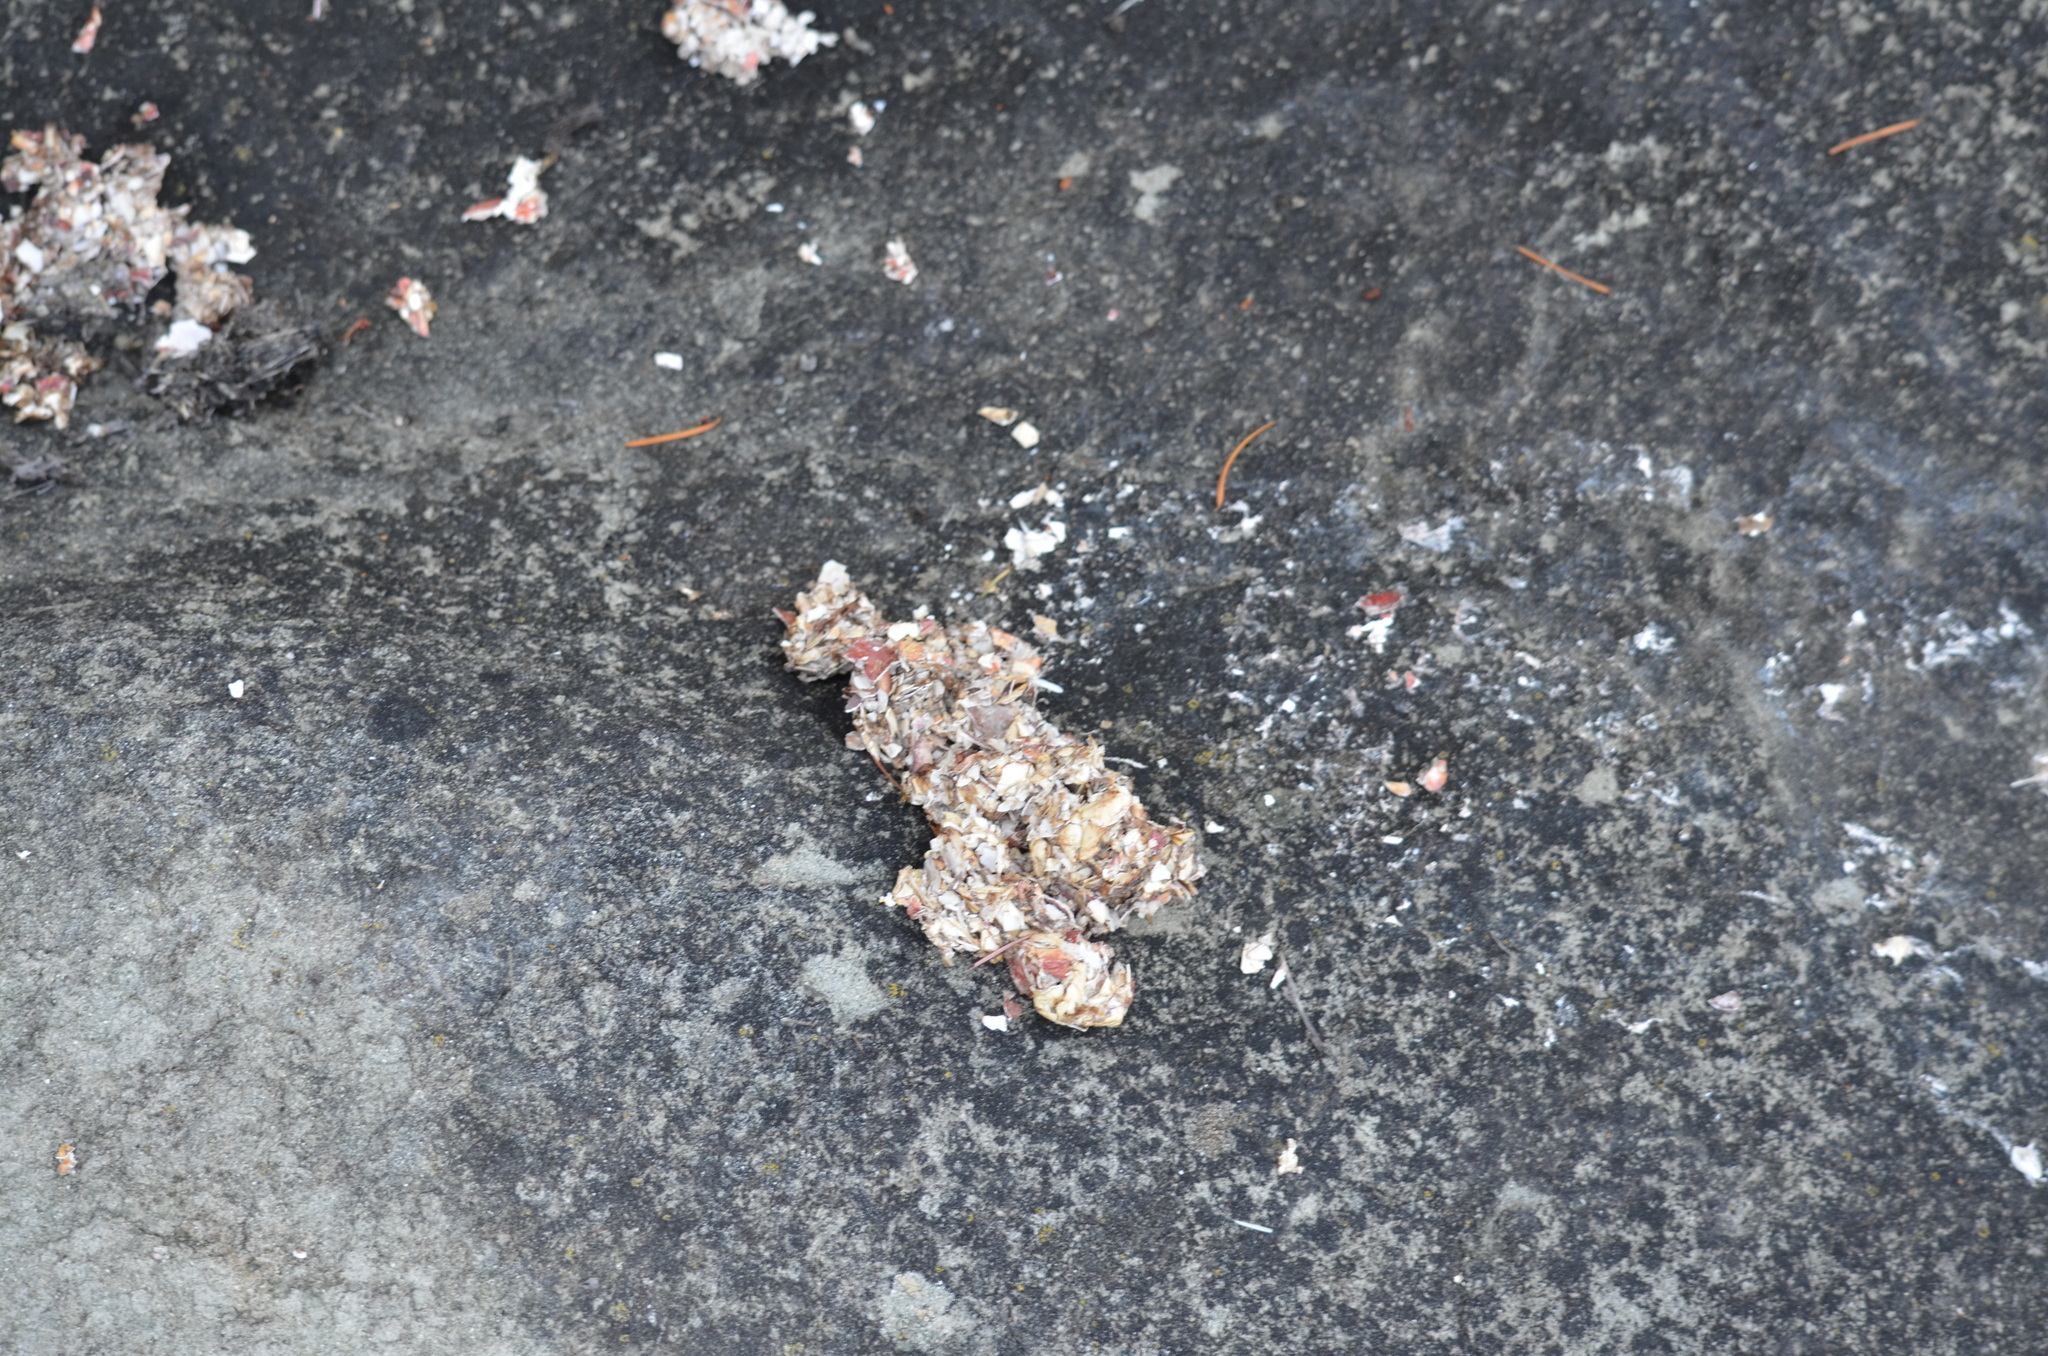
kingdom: Animalia
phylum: Chordata
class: Mammalia
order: Carnivora
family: Mustelidae
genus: Lontra
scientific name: Lontra canadensis
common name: North american river otter
